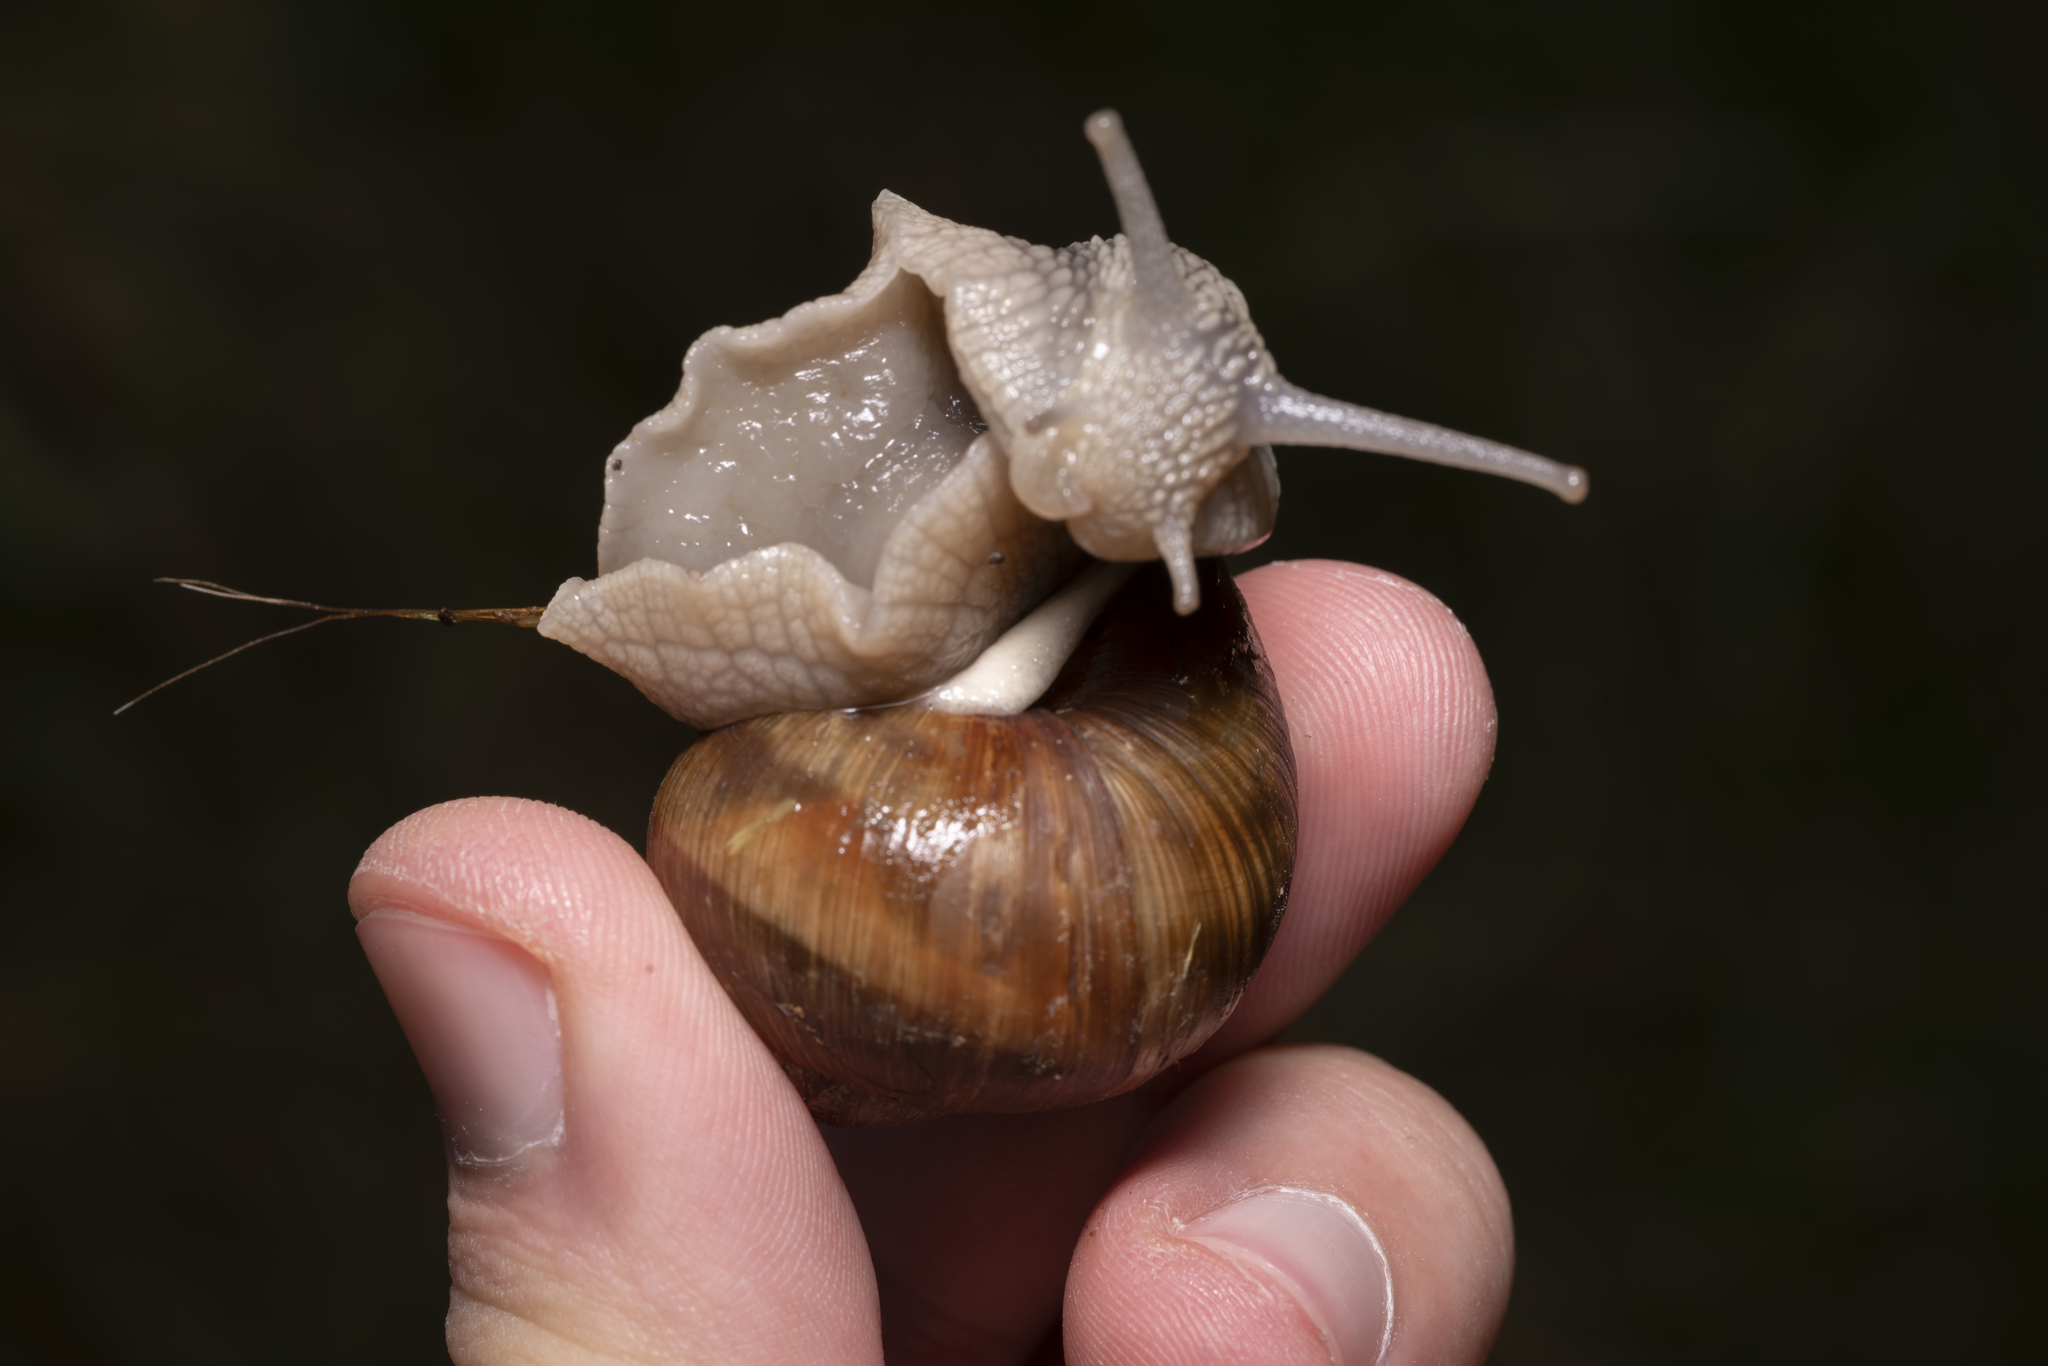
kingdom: Animalia
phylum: Mollusca
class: Gastropoda
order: Stylommatophora
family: Helicidae
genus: Helix
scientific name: Helix pomatia
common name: Roman snail
